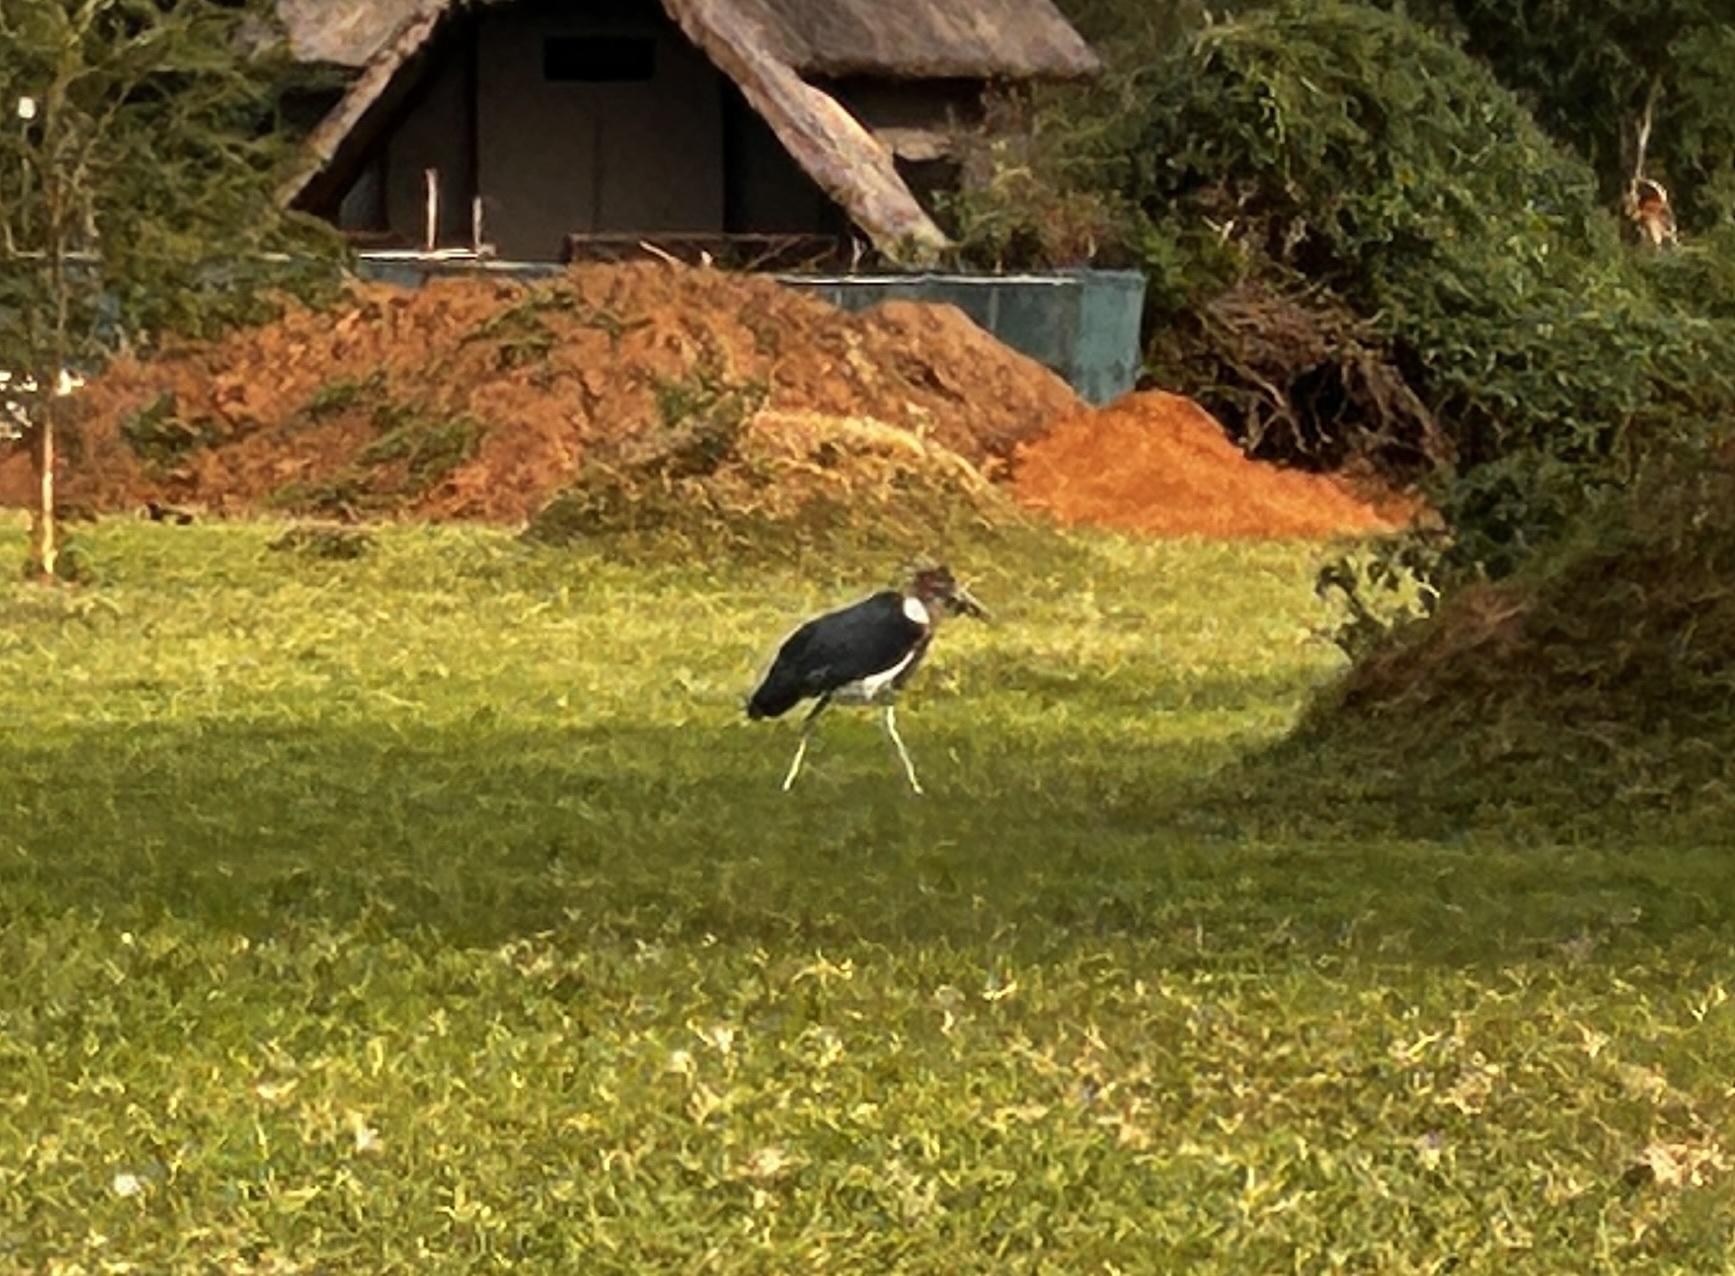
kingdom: Animalia
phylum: Chordata
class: Aves
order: Ciconiiformes
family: Ciconiidae
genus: Leptoptilos
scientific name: Leptoptilos crumenifer
